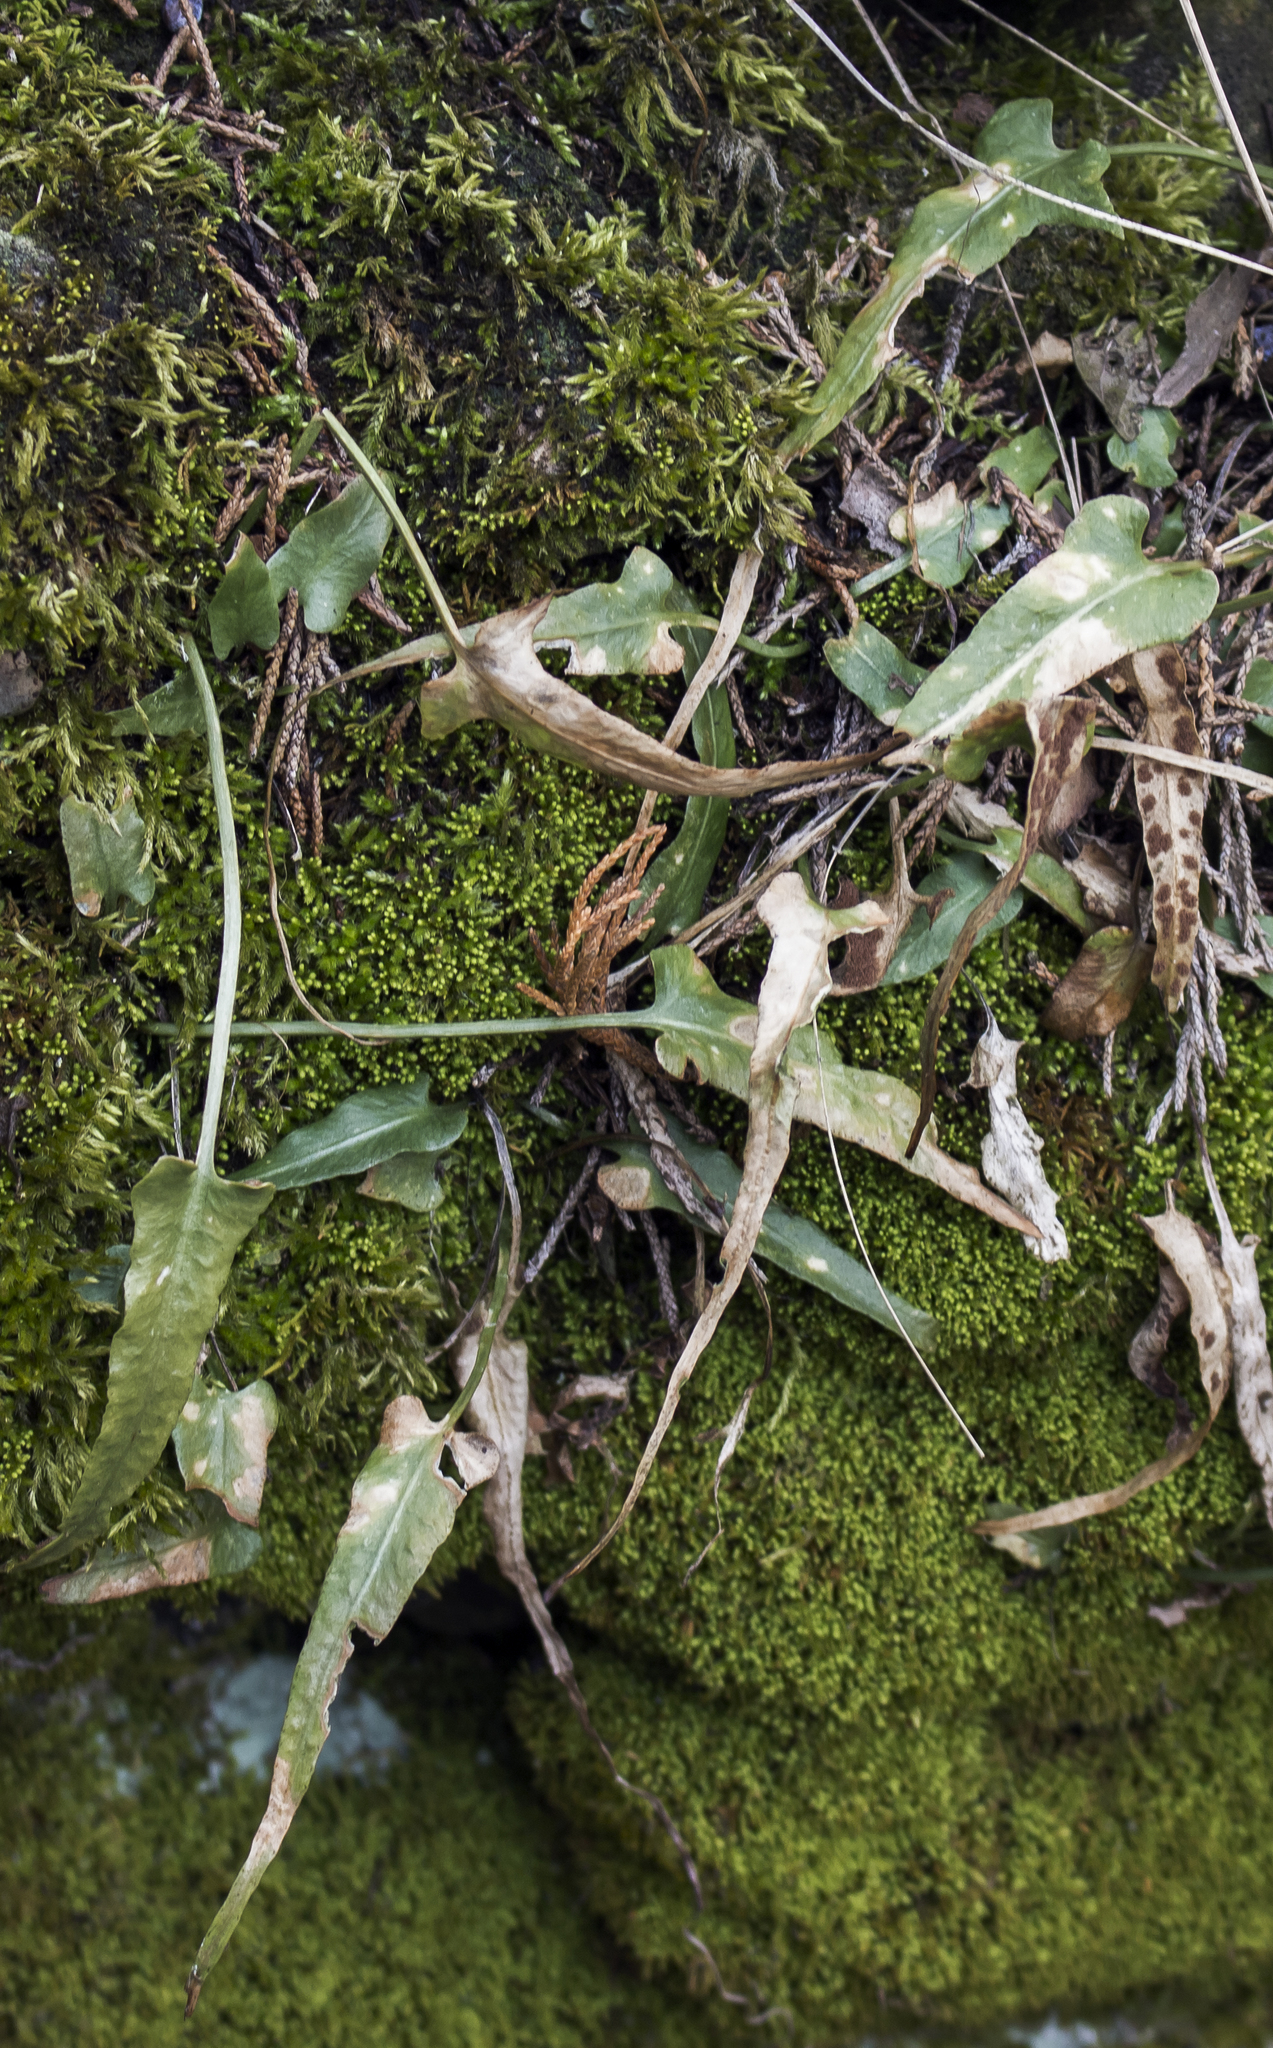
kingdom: Plantae
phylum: Tracheophyta
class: Polypodiopsida
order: Polypodiales
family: Aspleniaceae
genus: Asplenium
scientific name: Asplenium rhizophyllum
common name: Walking fern
